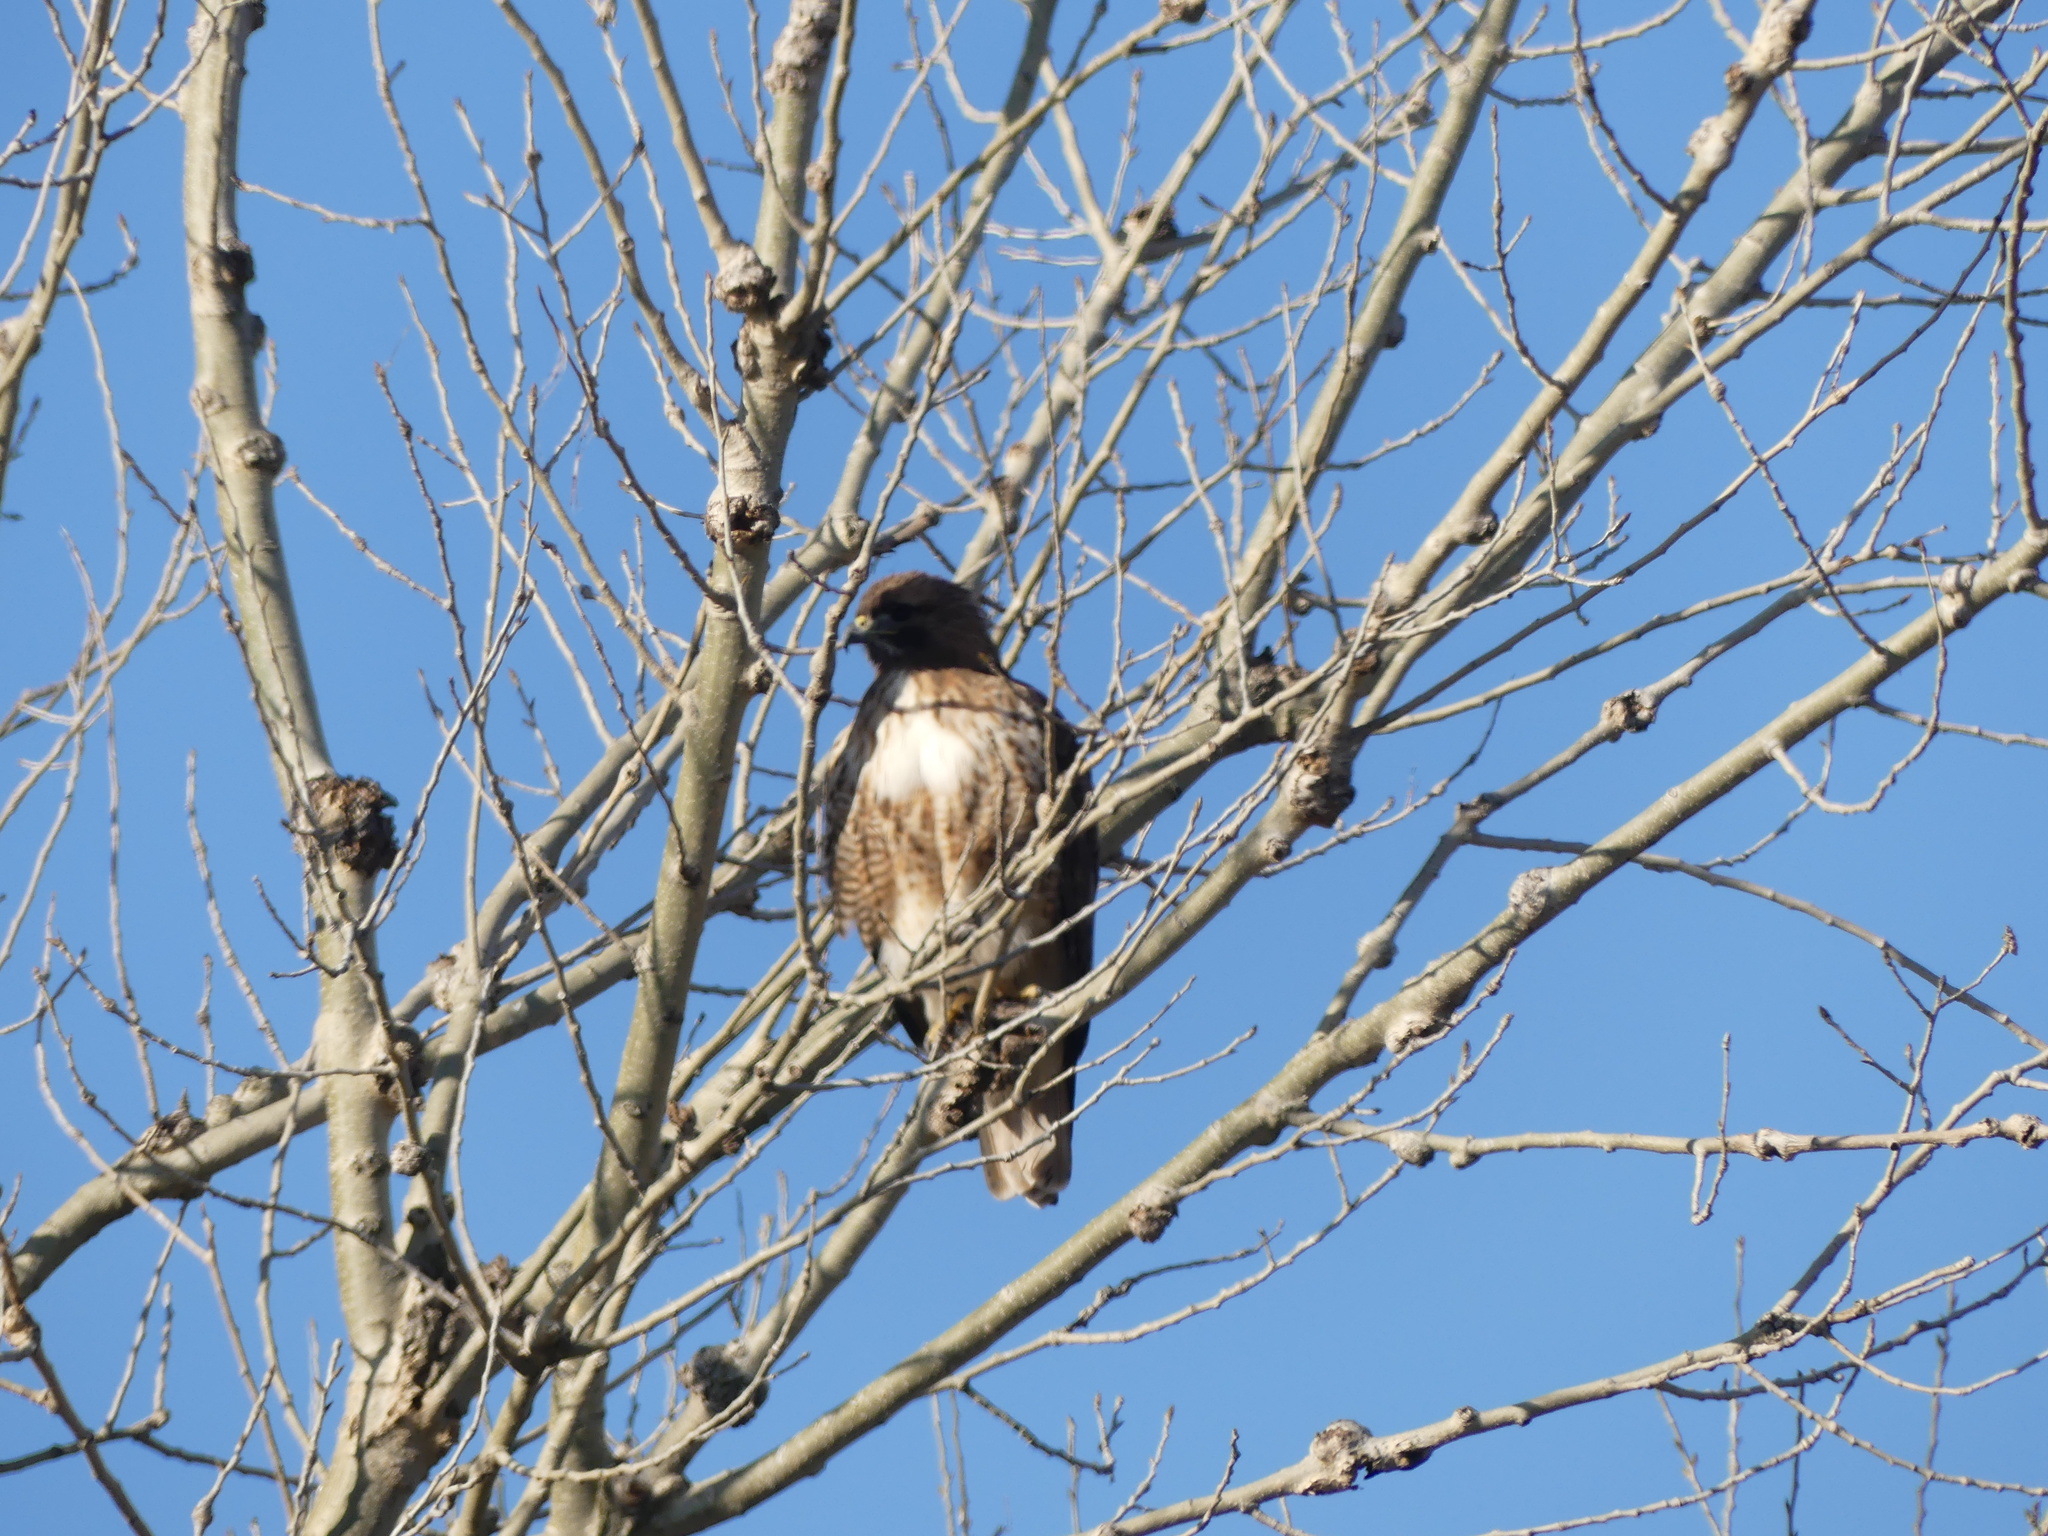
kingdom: Animalia
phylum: Chordata
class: Aves
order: Accipitriformes
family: Accipitridae
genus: Buteo
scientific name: Buteo jamaicensis
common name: Red-tailed hawk
